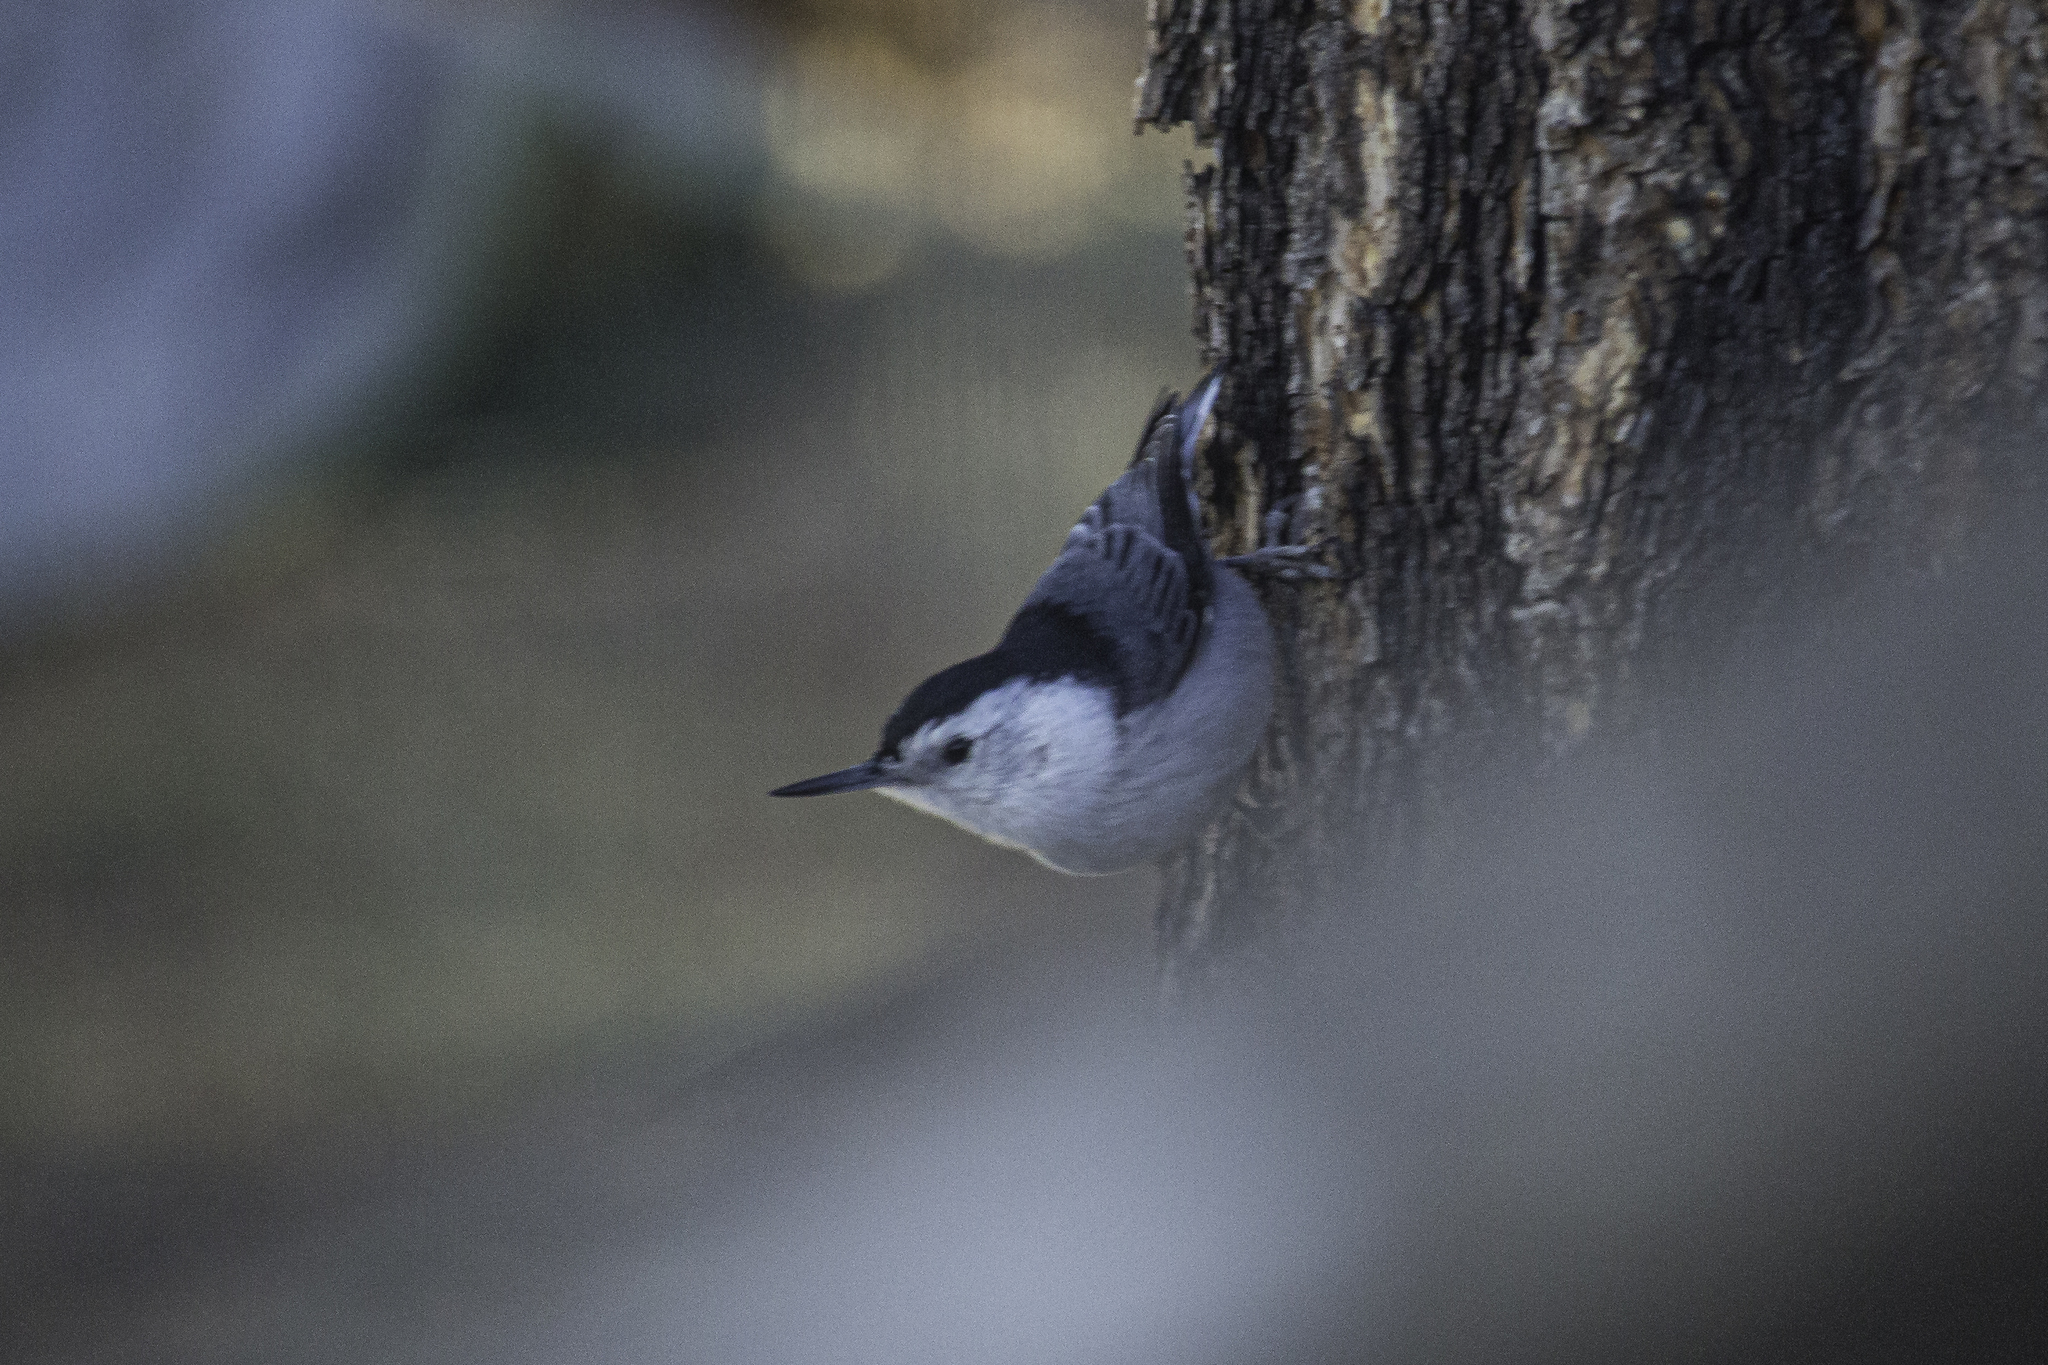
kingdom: Animalia
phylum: Chordata
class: Aves
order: Passeriformes
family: Sittidae
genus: Sitta
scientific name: Sitta carolinensis
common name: White-breasted nuthatch
